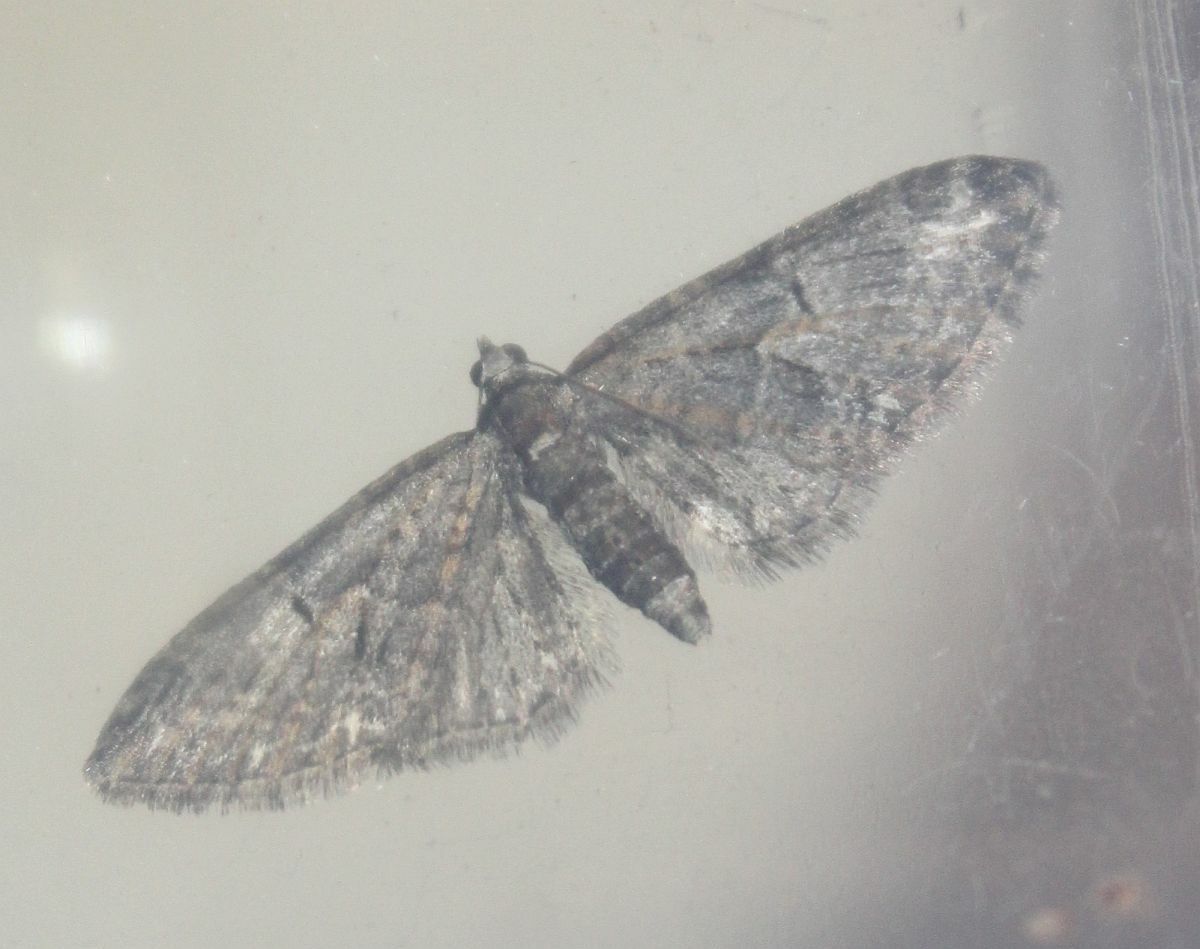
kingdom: Animalia
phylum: Arthropoda
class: Insecta
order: Lepidoptera
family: Geometridae
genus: Eupithecia
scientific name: Eupithecia abbreviata
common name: Brindled pug
